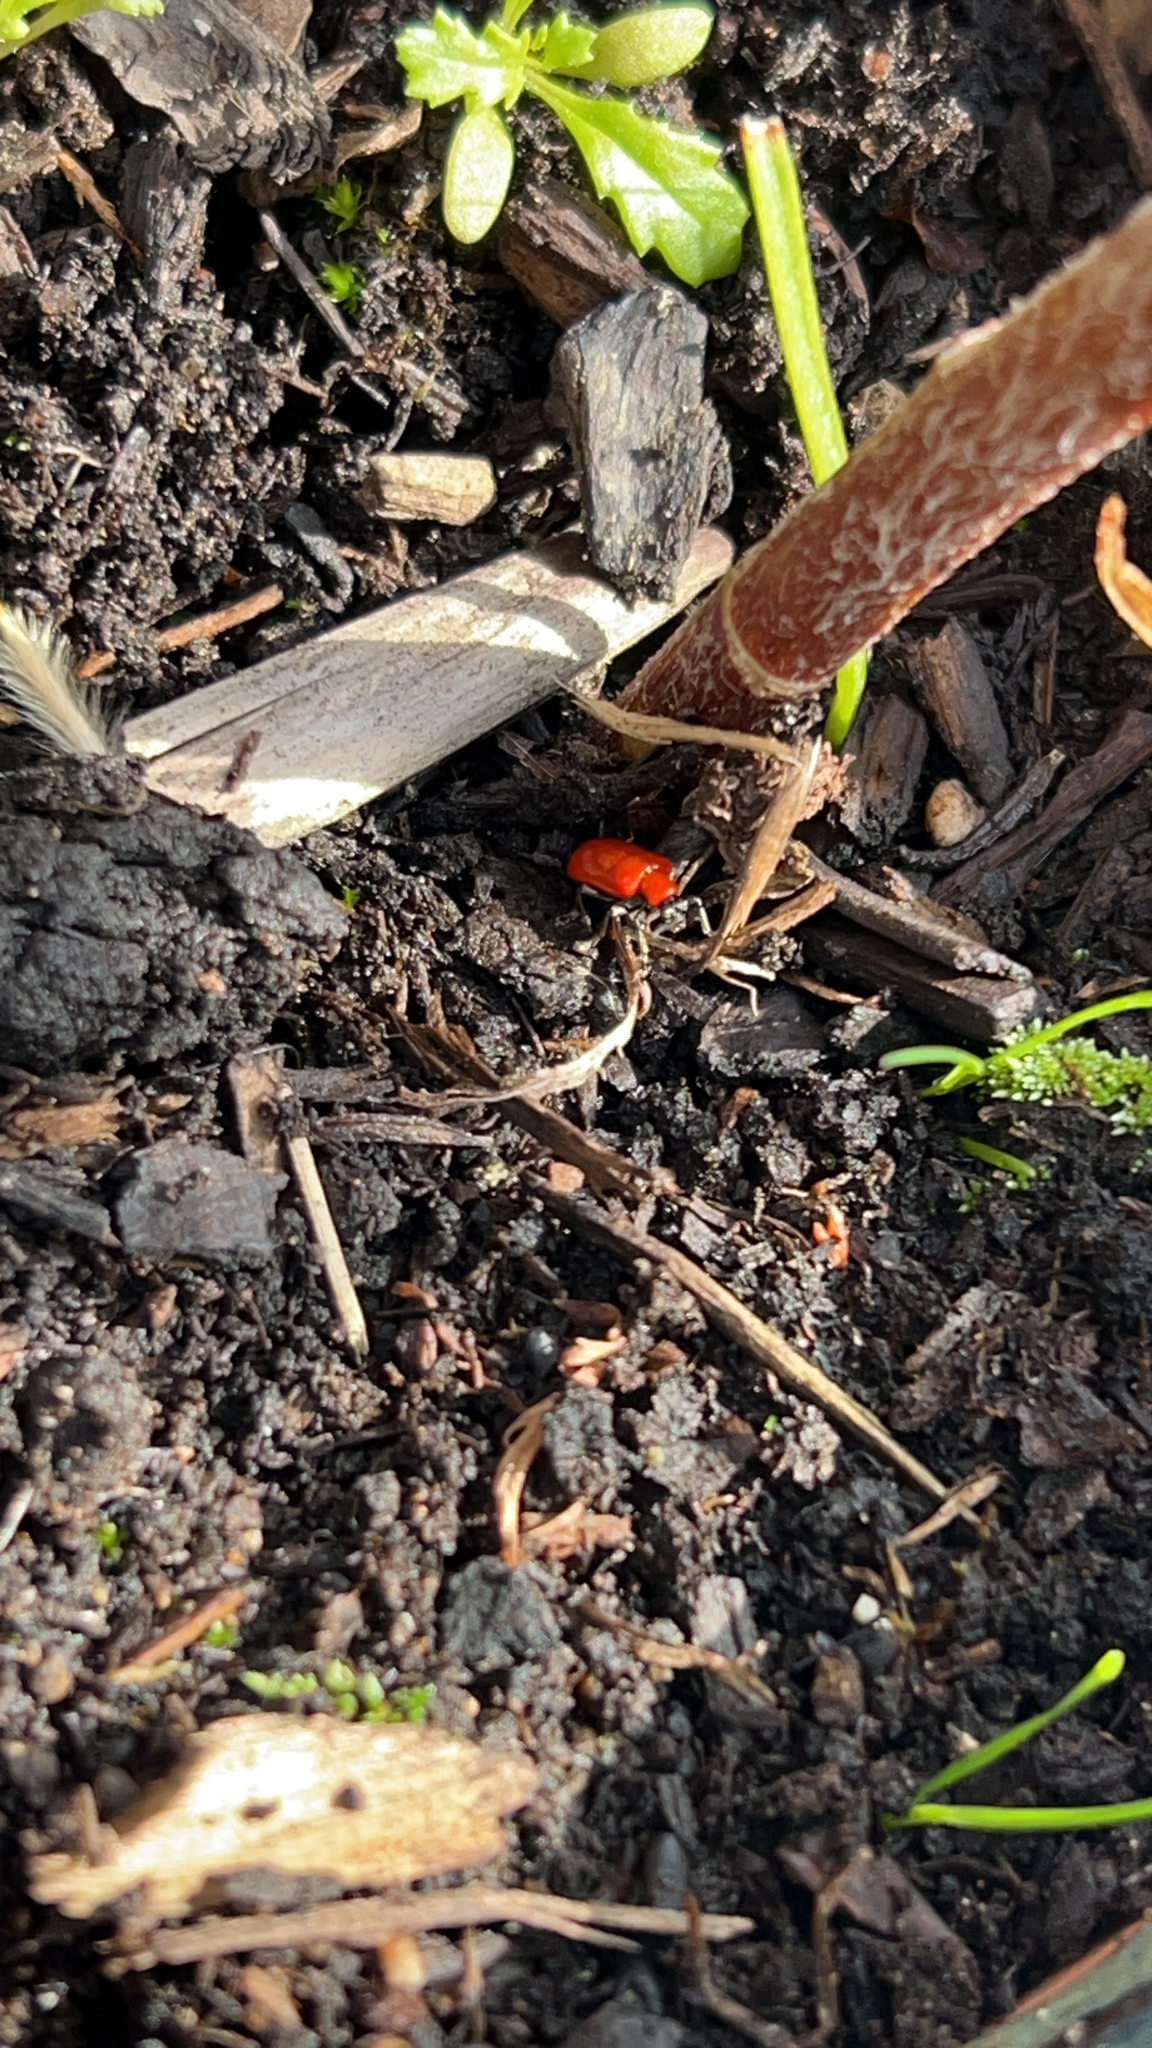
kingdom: Animalia
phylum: Arthropoda
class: Insecta
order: Coleoptera
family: Chrysomelidae
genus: Lilioceris
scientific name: Lilioceris lilii
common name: Lily beetle
